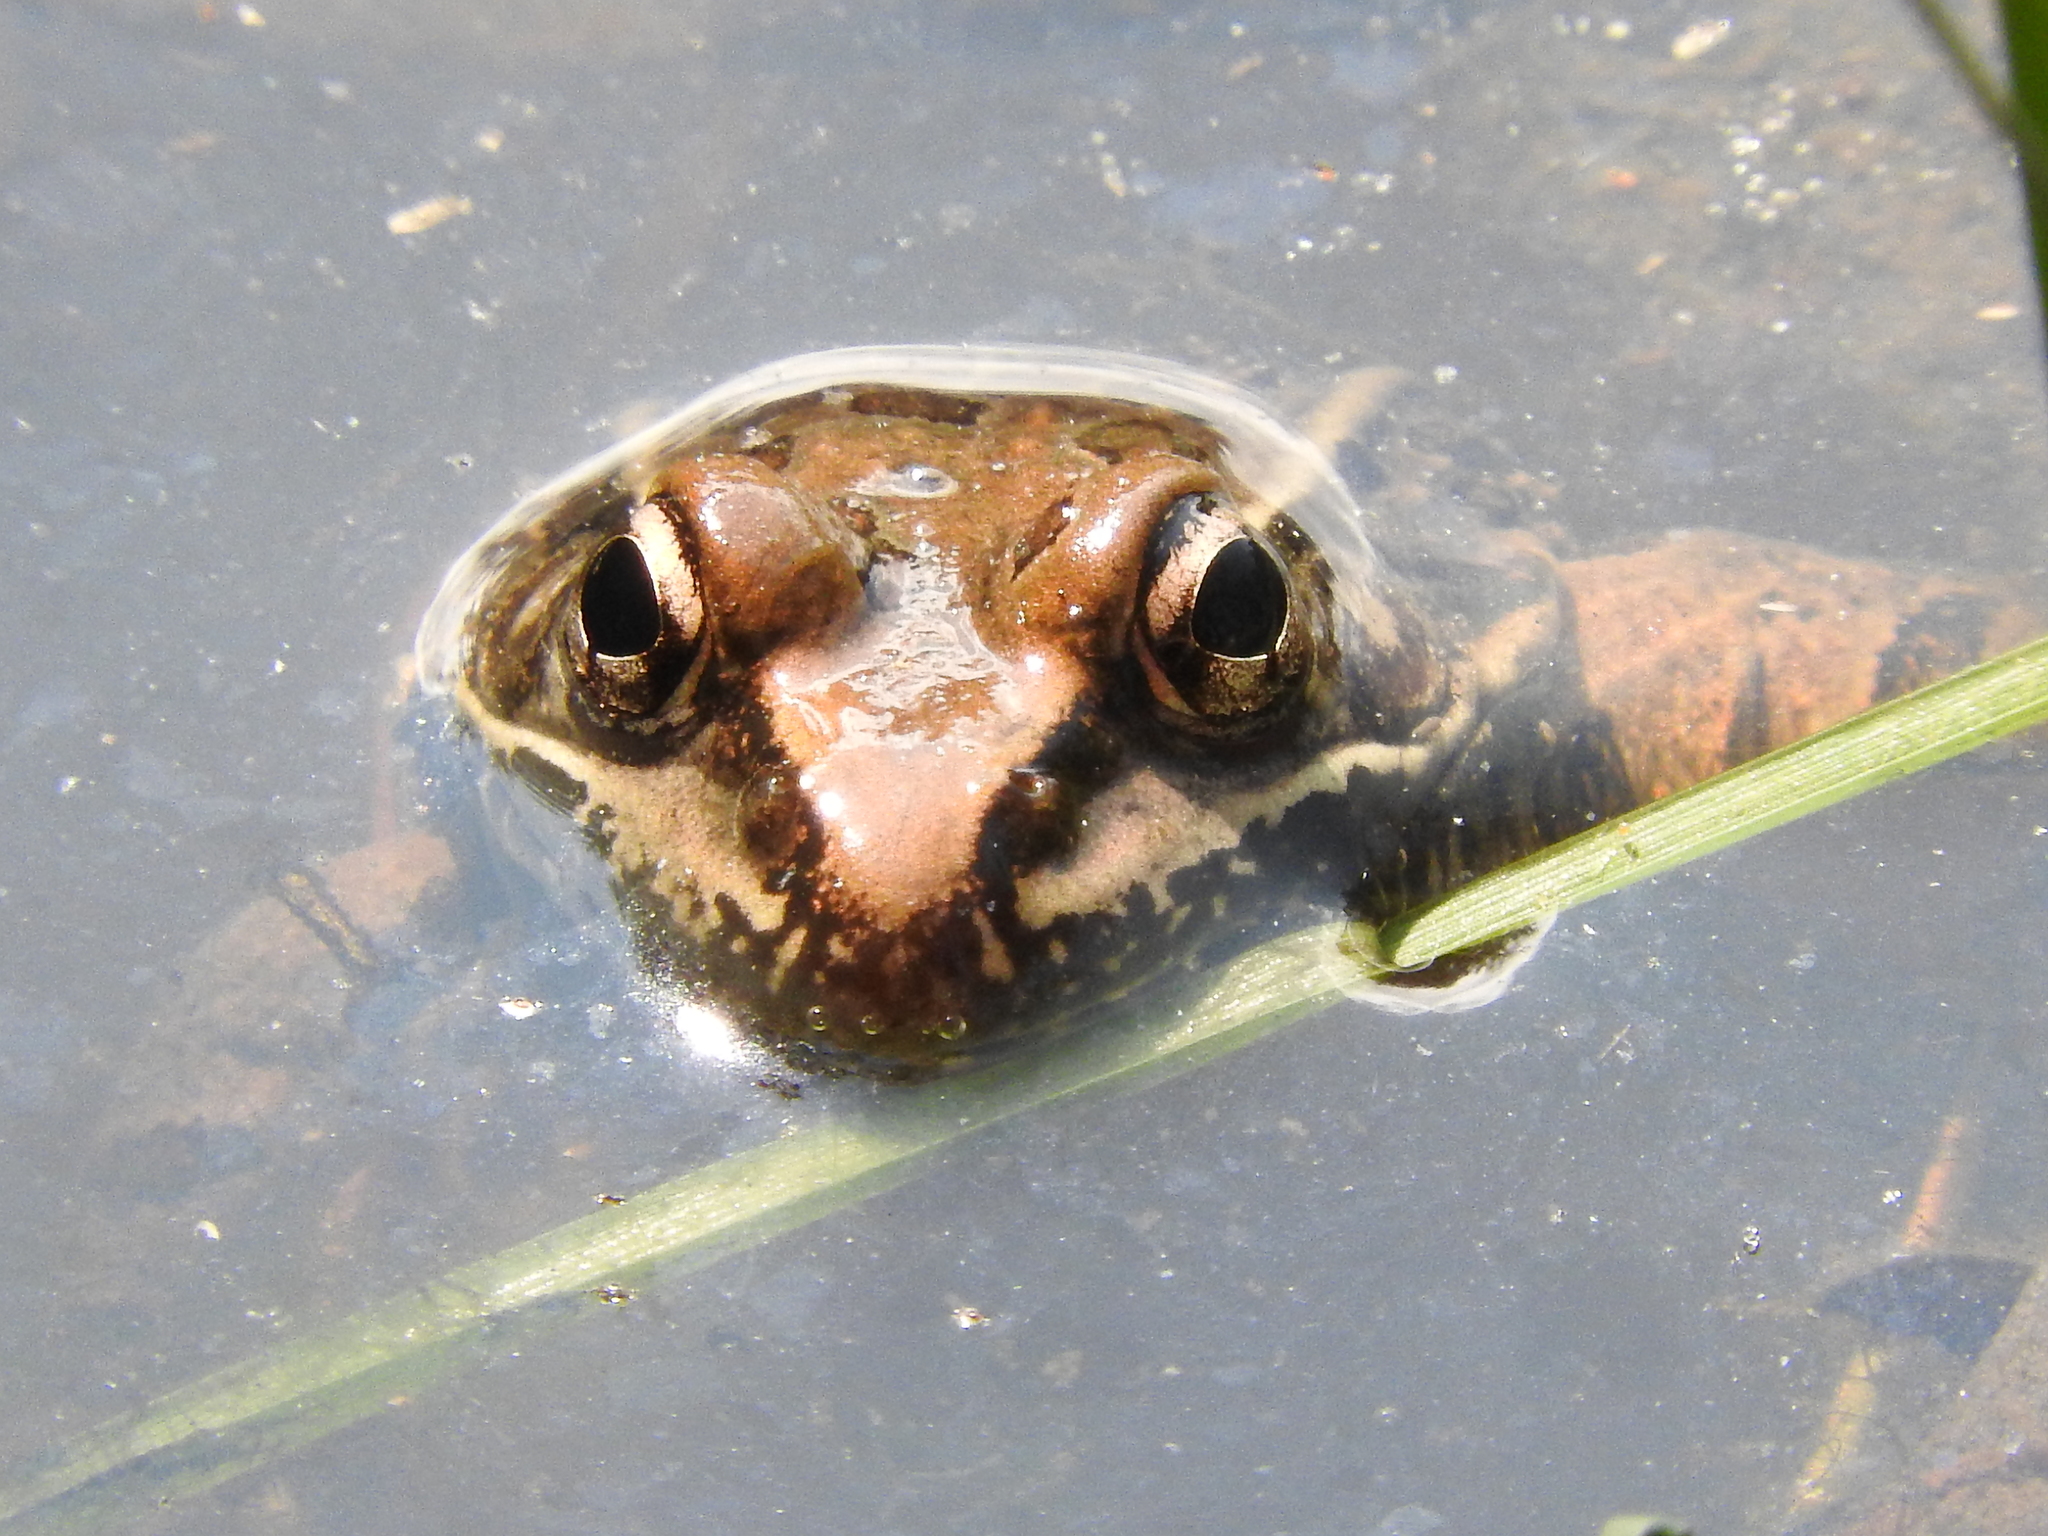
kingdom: Animalia
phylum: Chordata
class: Amphibia
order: Anura
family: Ranidae
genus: Lithobates
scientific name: Lithobates neovolcanicus
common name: Transverse volcanic leopard frog
